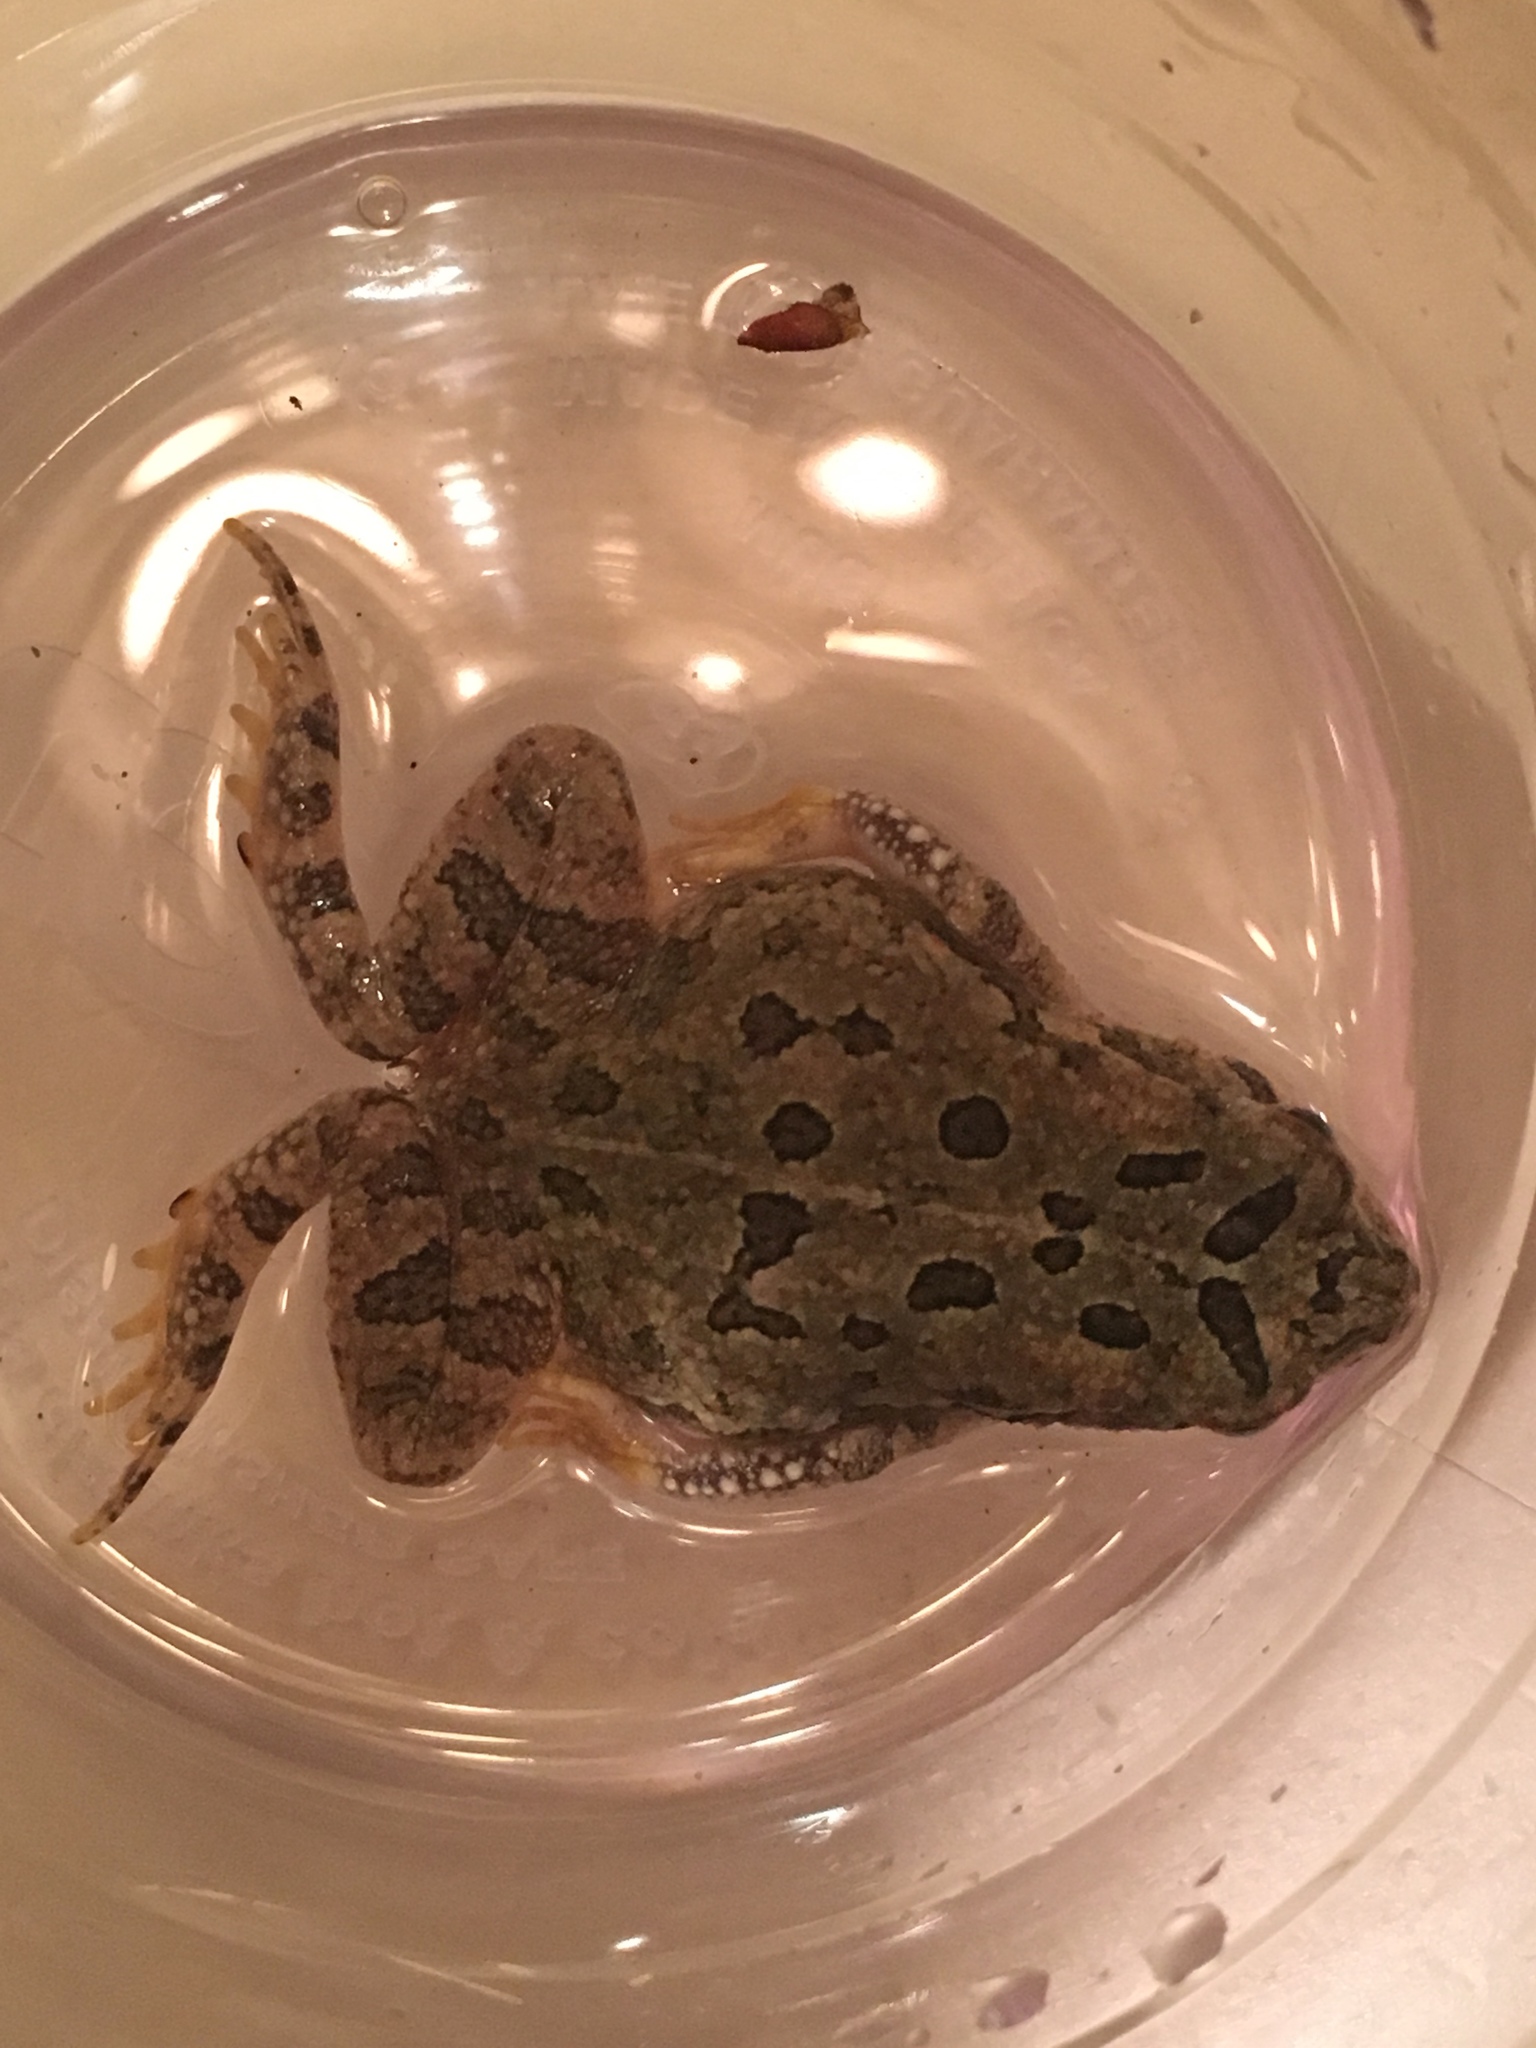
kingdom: Animalia
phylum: Chordata
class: Amphibia
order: Anura
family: Bufonidae
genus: Anaxyrus
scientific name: Anaxyrus fowleri
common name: Fowler's toad
